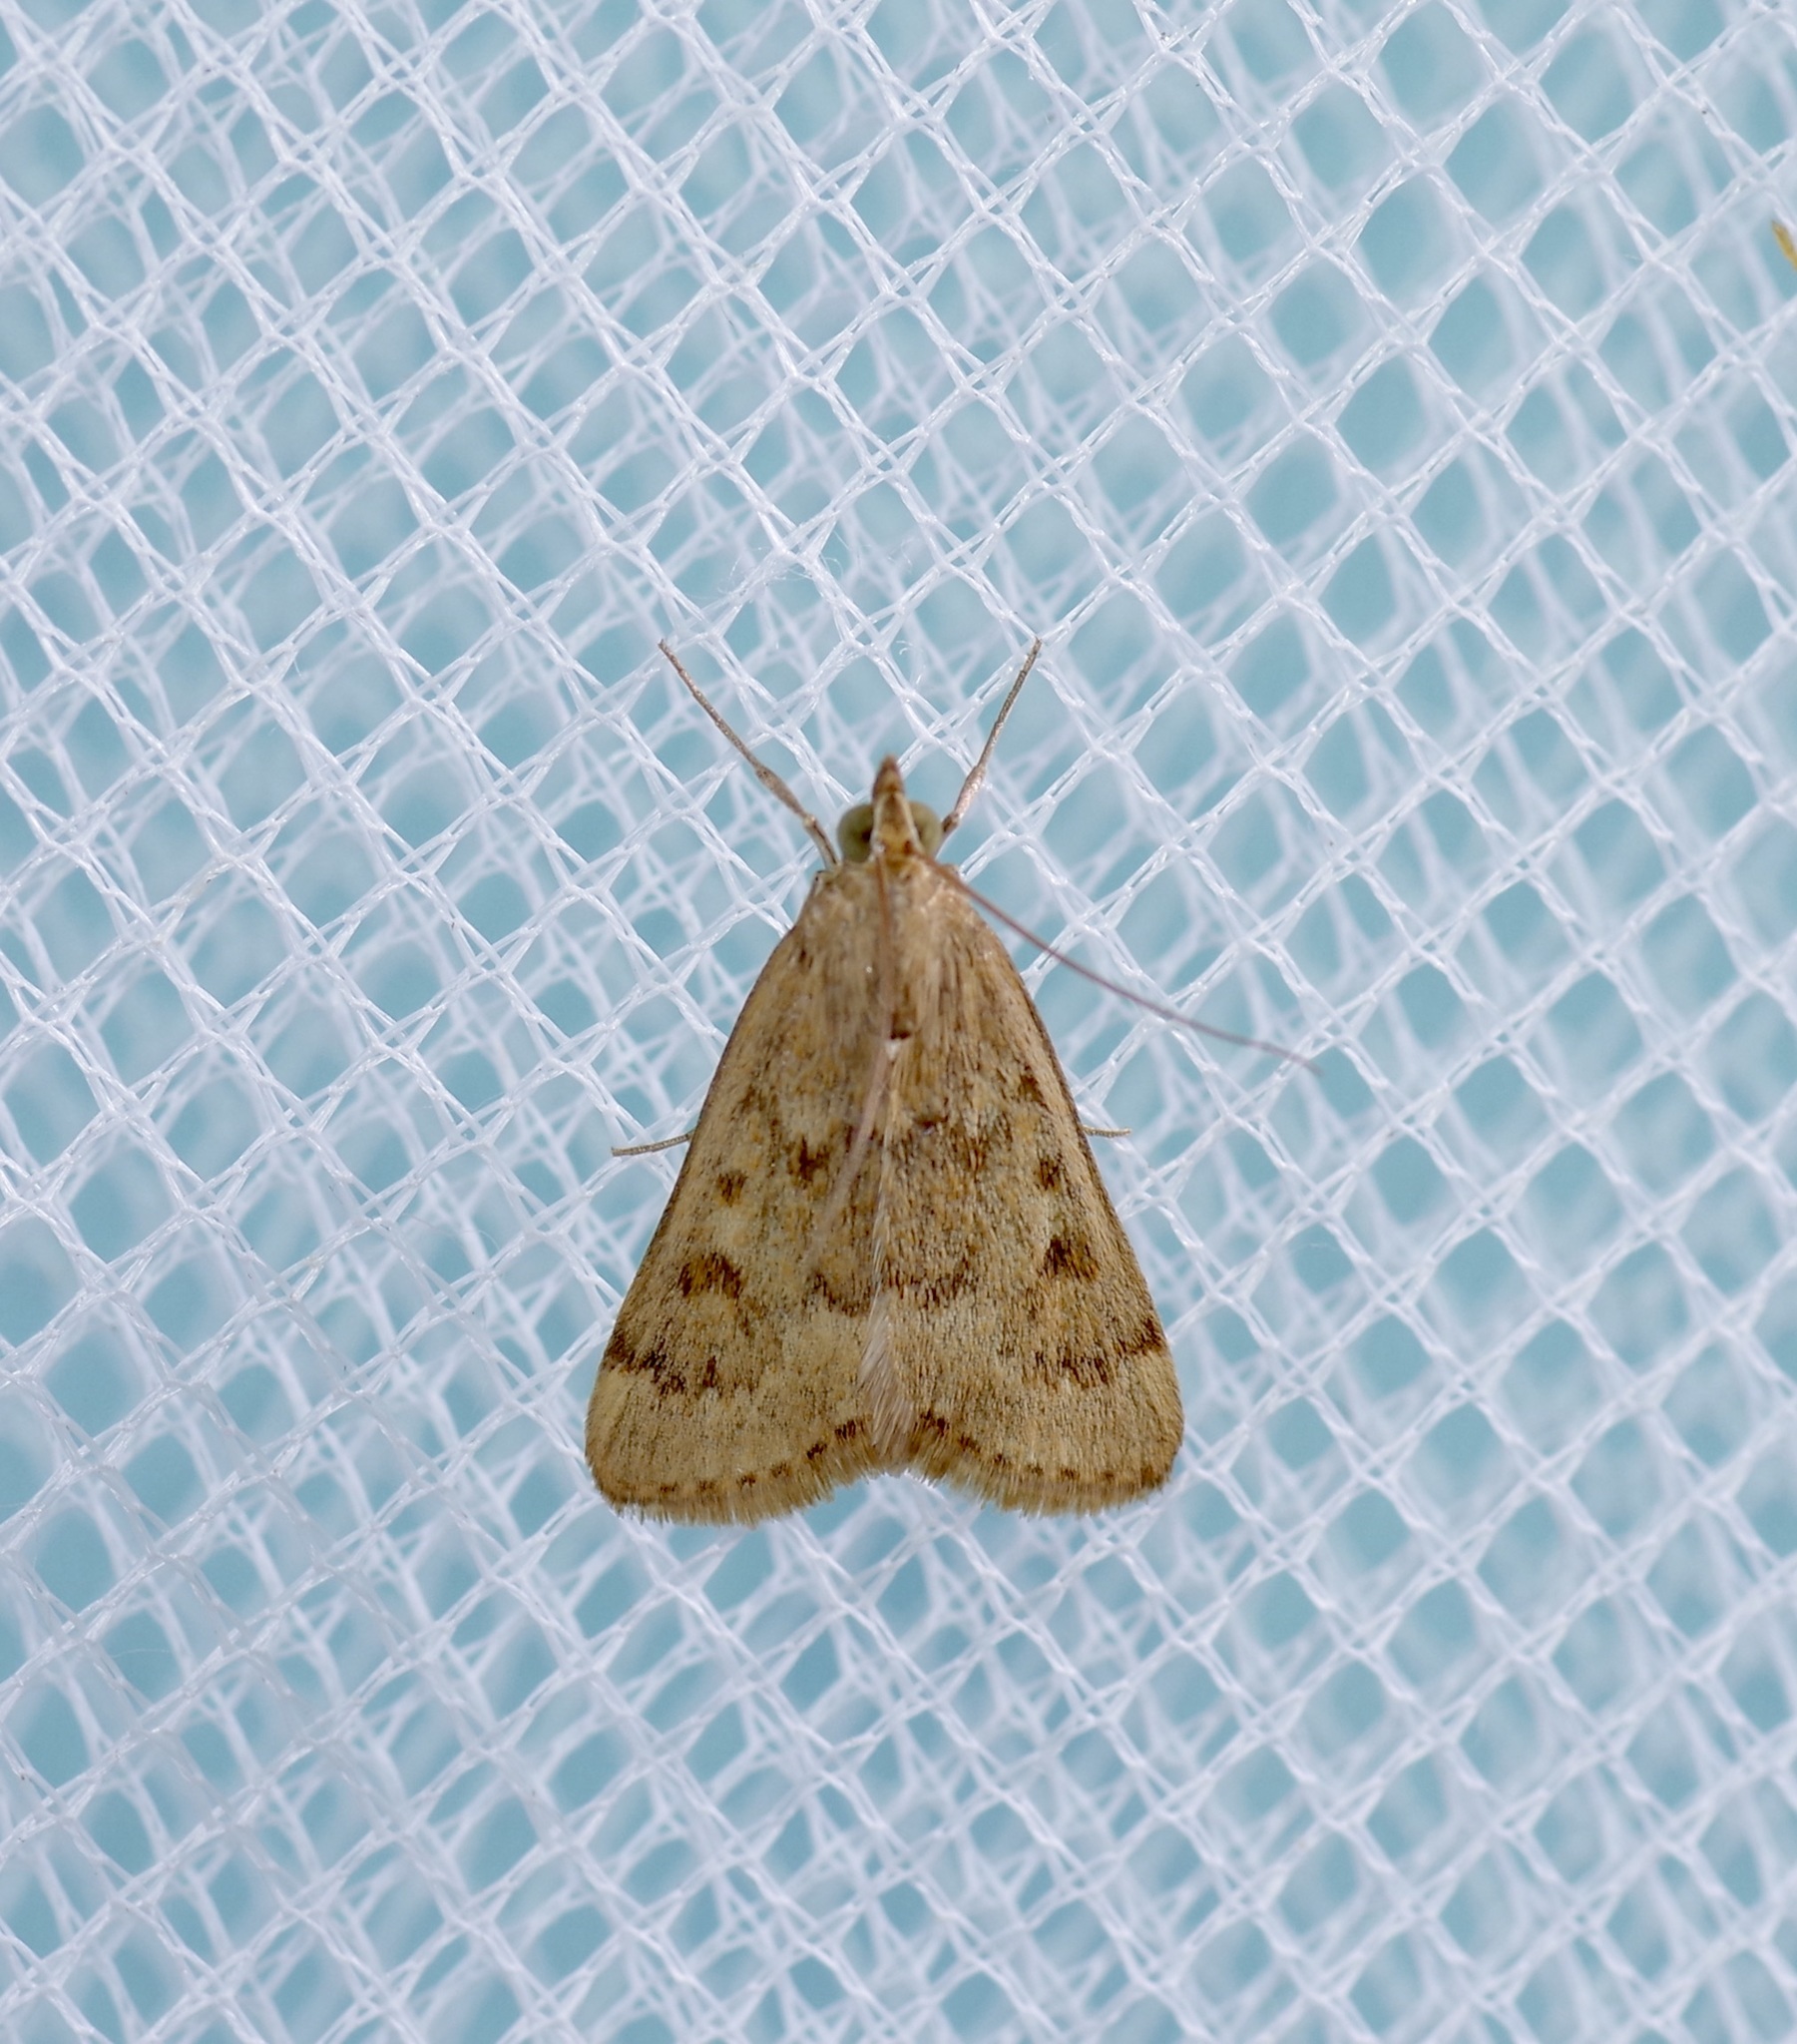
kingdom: Animalia
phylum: Arthropoda
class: Insecta
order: Lepidoptera
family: Crambidae
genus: Achyra
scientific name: Achyra rantalis
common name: Garden webworm
